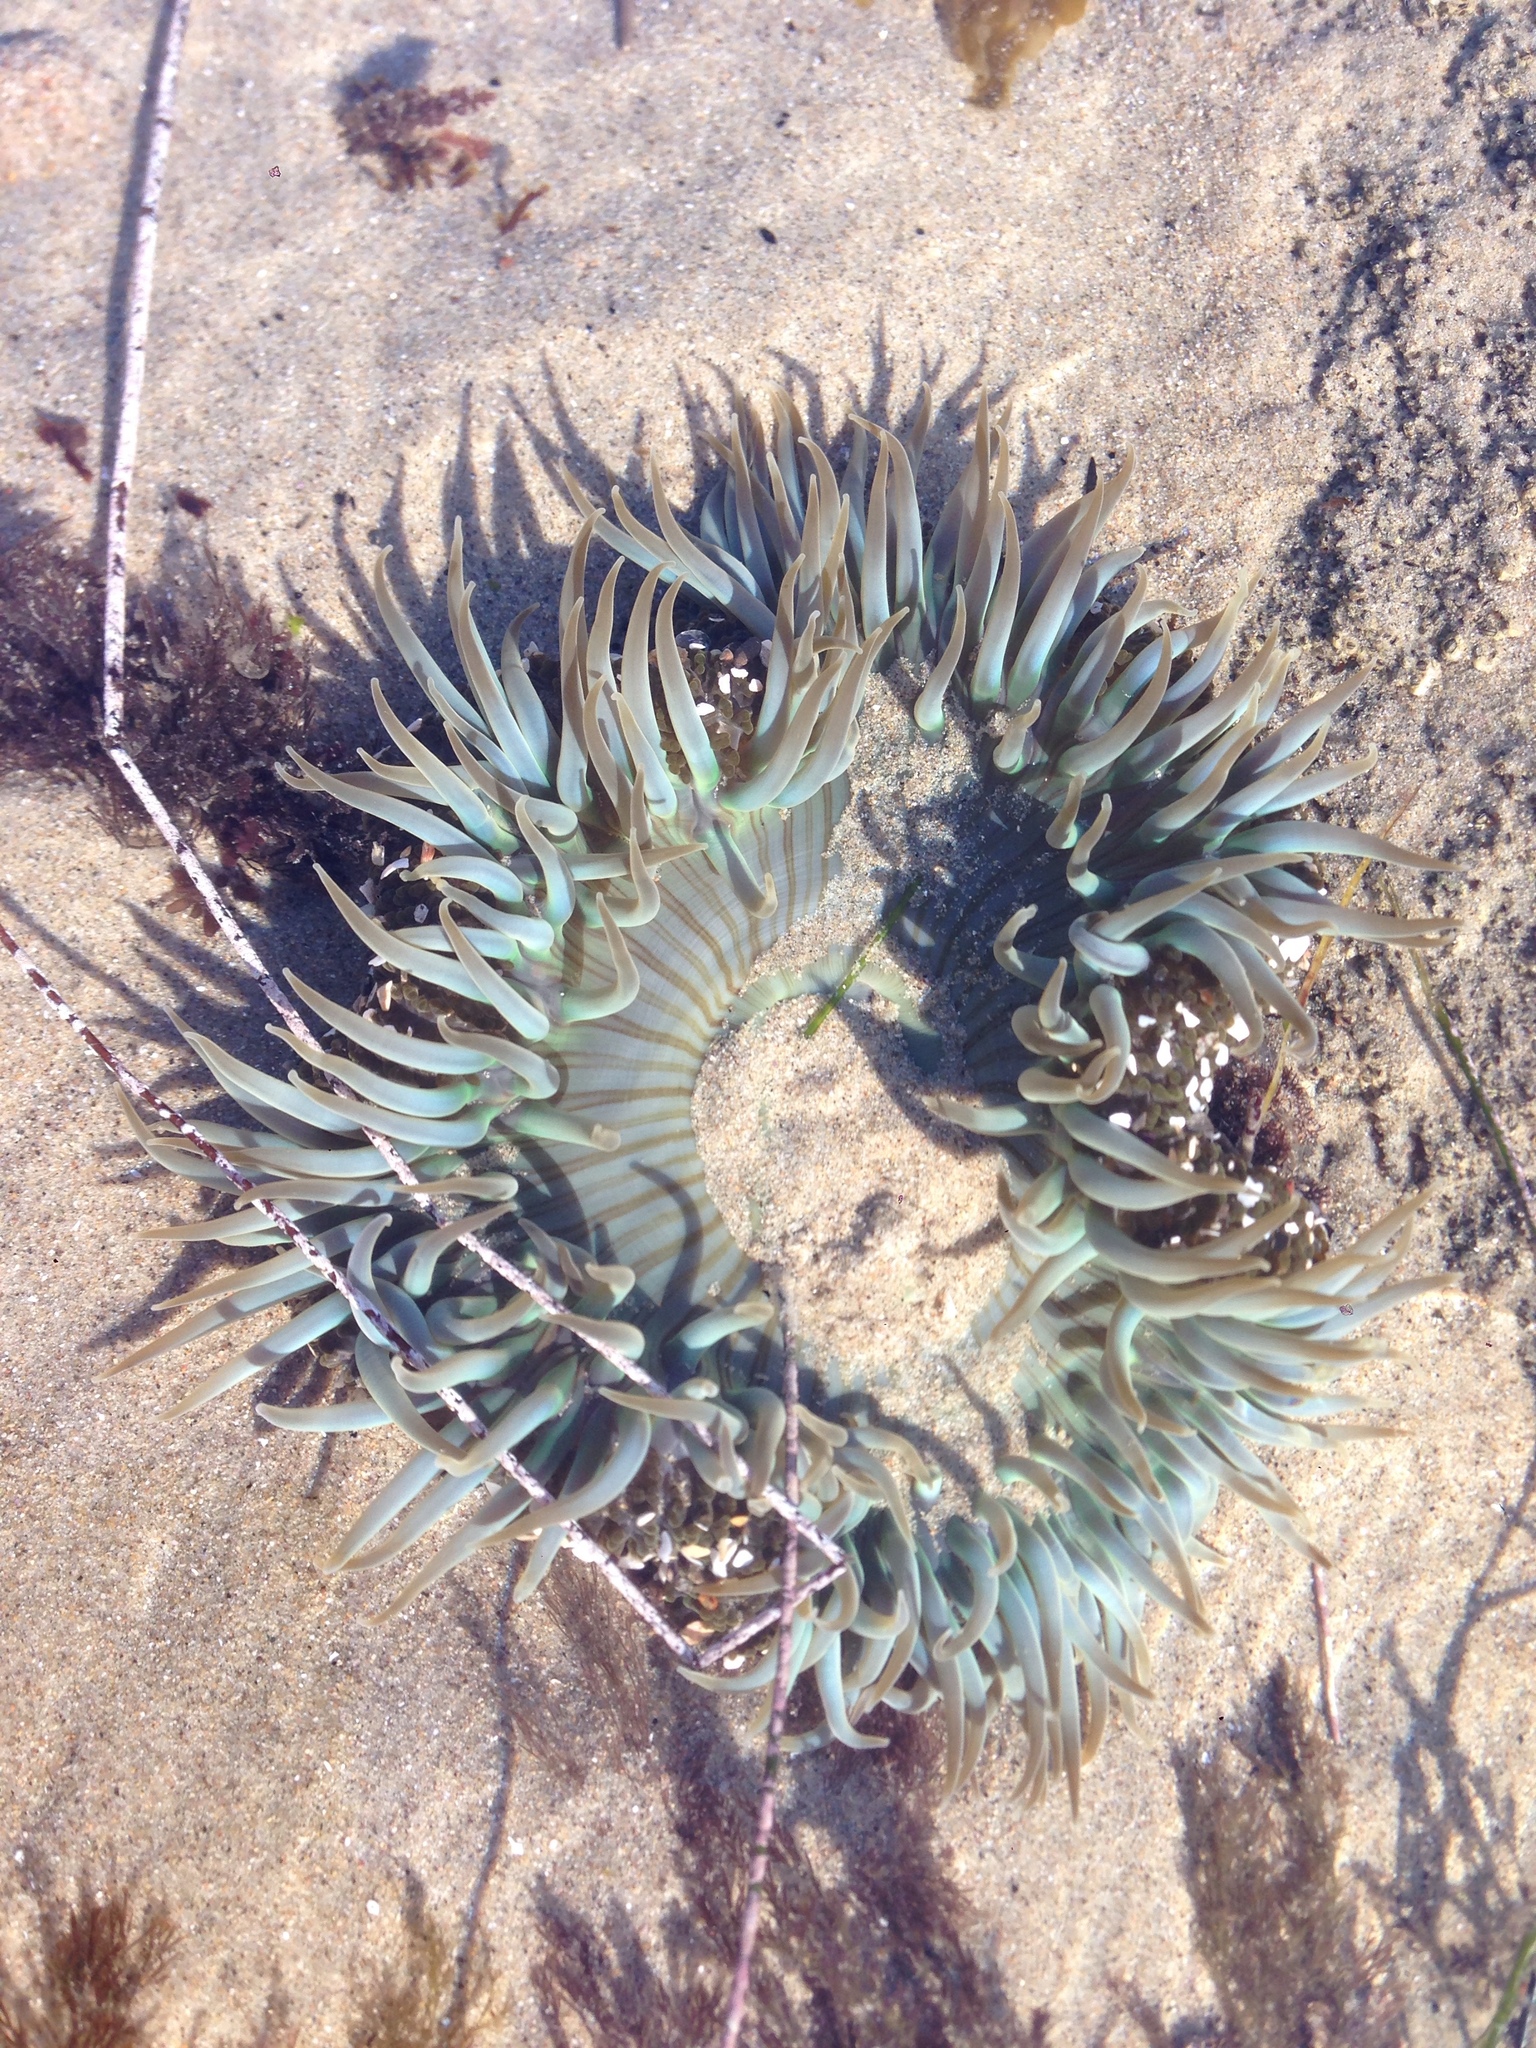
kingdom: Animalia
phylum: Cnidaria
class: Anthozoa
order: Actiniaria
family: Actiniidae
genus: Anthopleura
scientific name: Anthopleura sola
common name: Sun anemone
